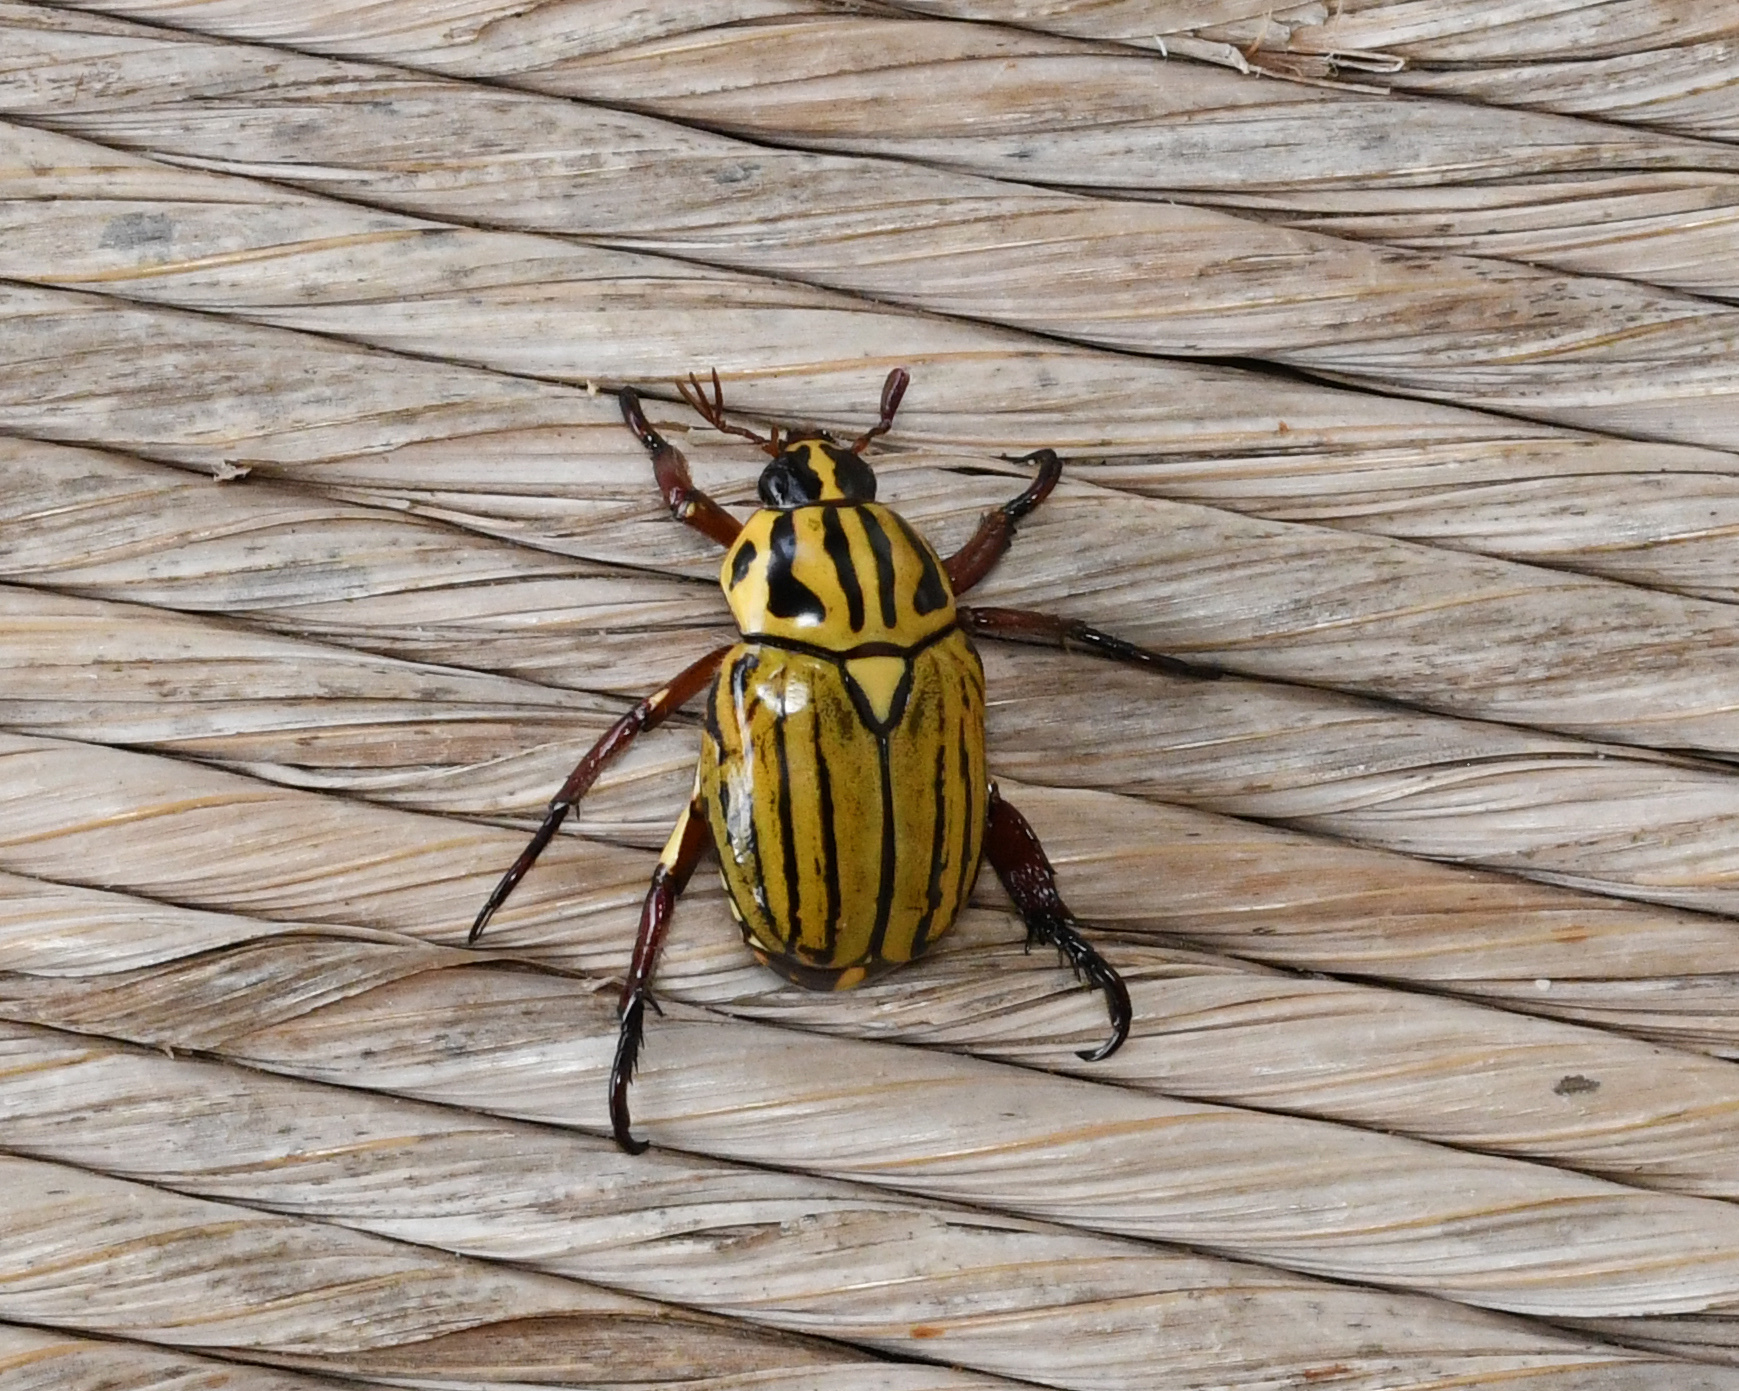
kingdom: Animalia
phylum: Arthropoda
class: Insecta
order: Coleoptera
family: Scarabaeidae
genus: Rutela
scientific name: Rutela dorcyi
